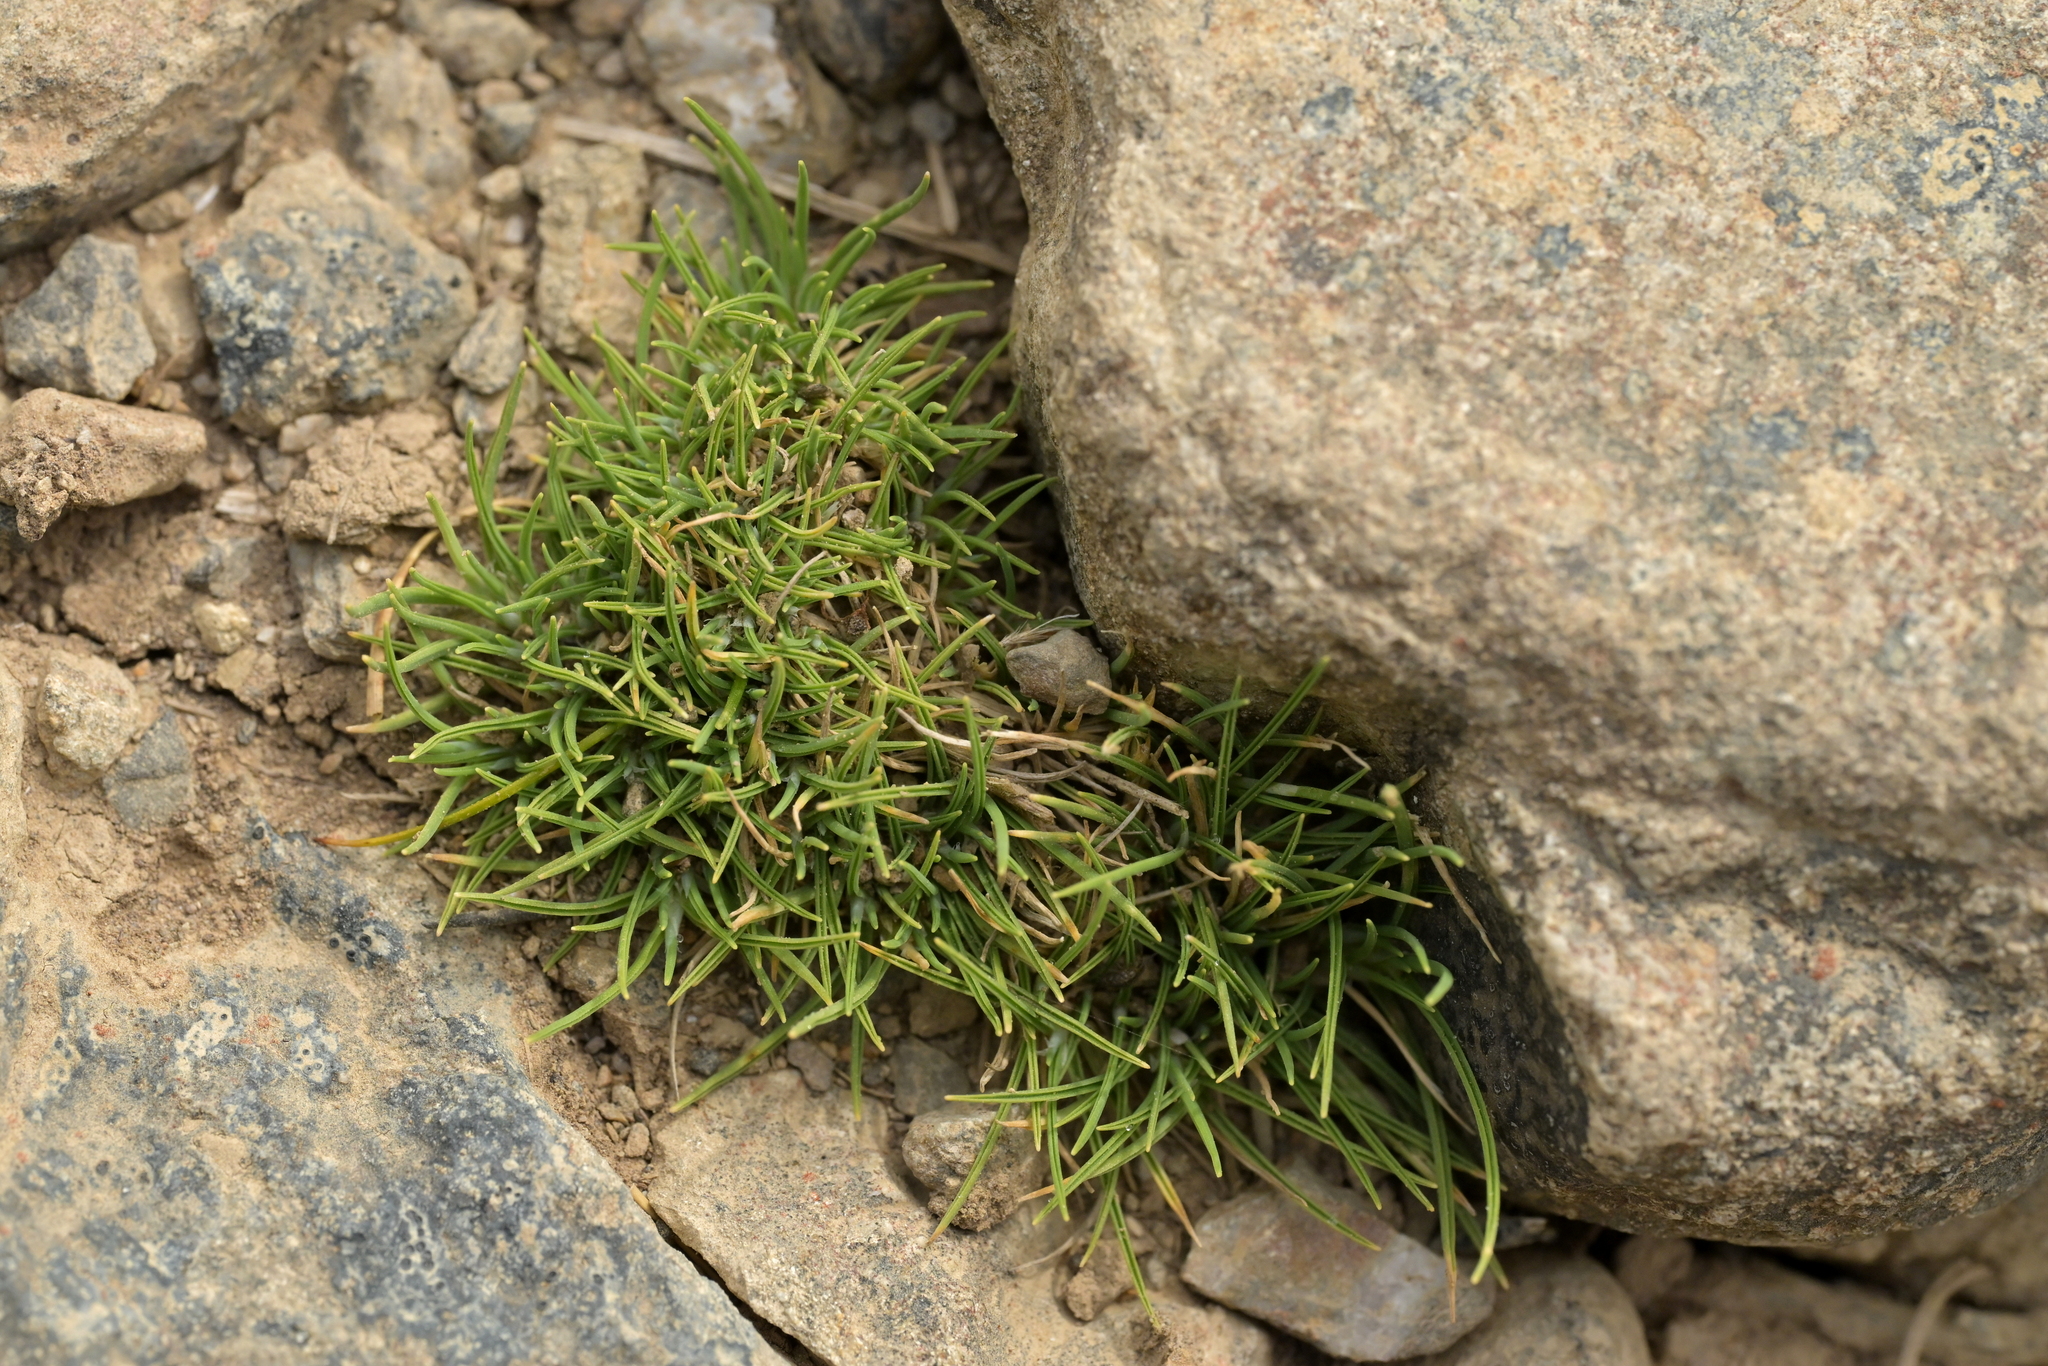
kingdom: Plantae
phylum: Tracheophyta
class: Liliopsida
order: Poales
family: Poaceae
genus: Agrostis
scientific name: Agrostis muscosa
